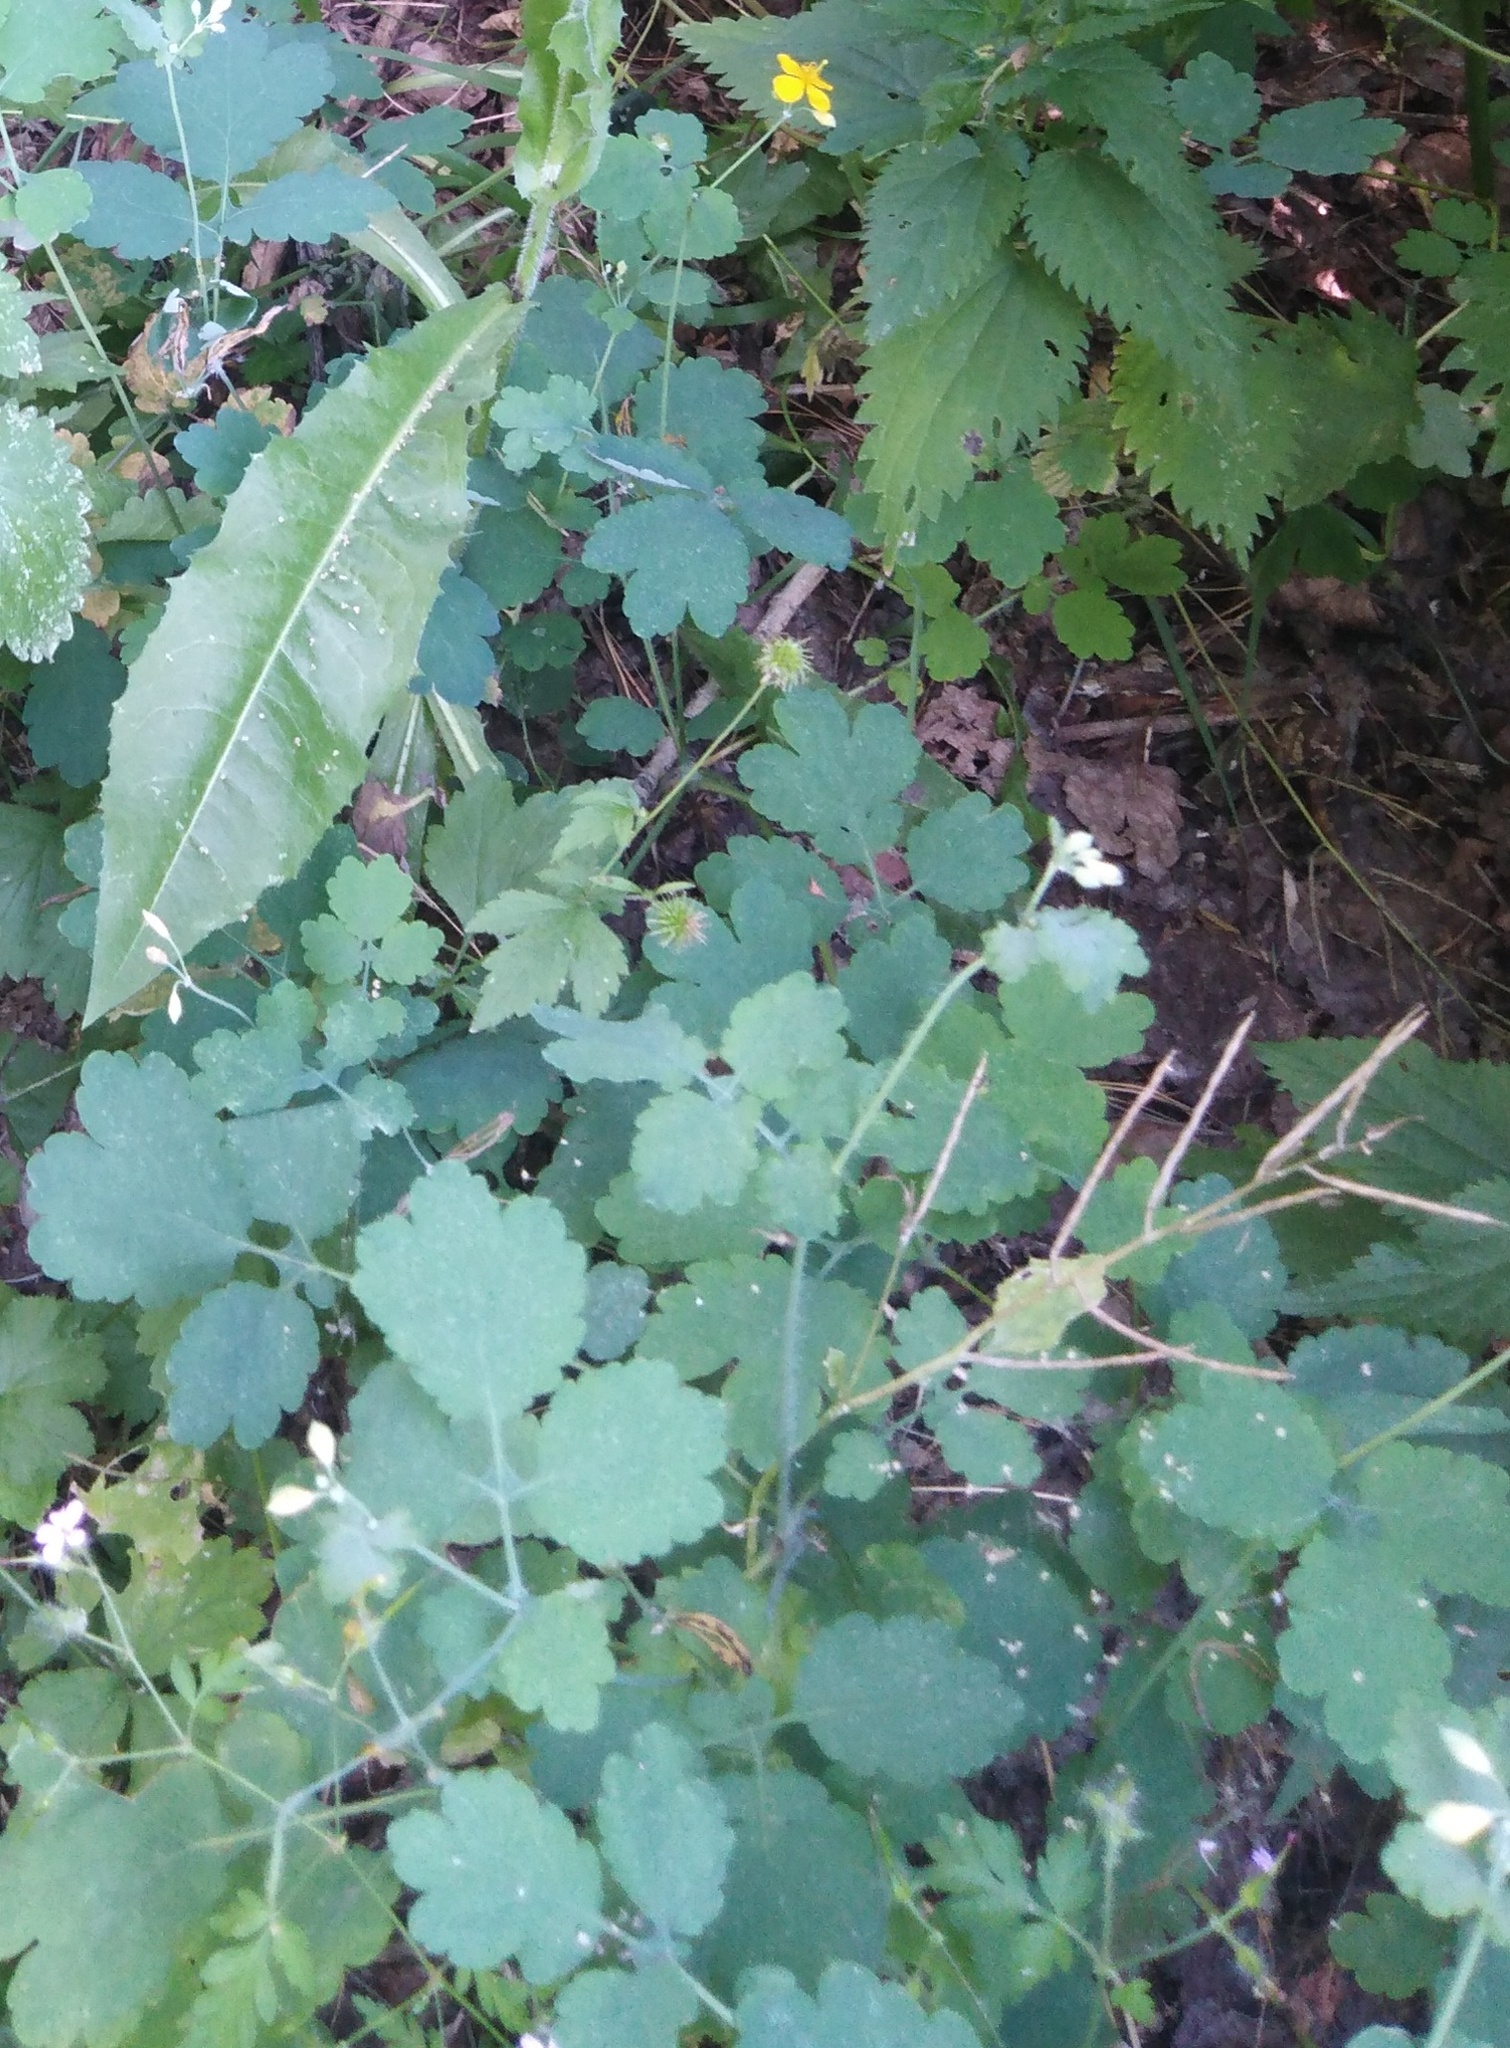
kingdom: Plantae
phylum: Tracheophyta
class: Magnoliopsida
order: Ranunculales
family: Papaveraceae
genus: Chelidonium
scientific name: Chelidonium majus
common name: Greater celandine
